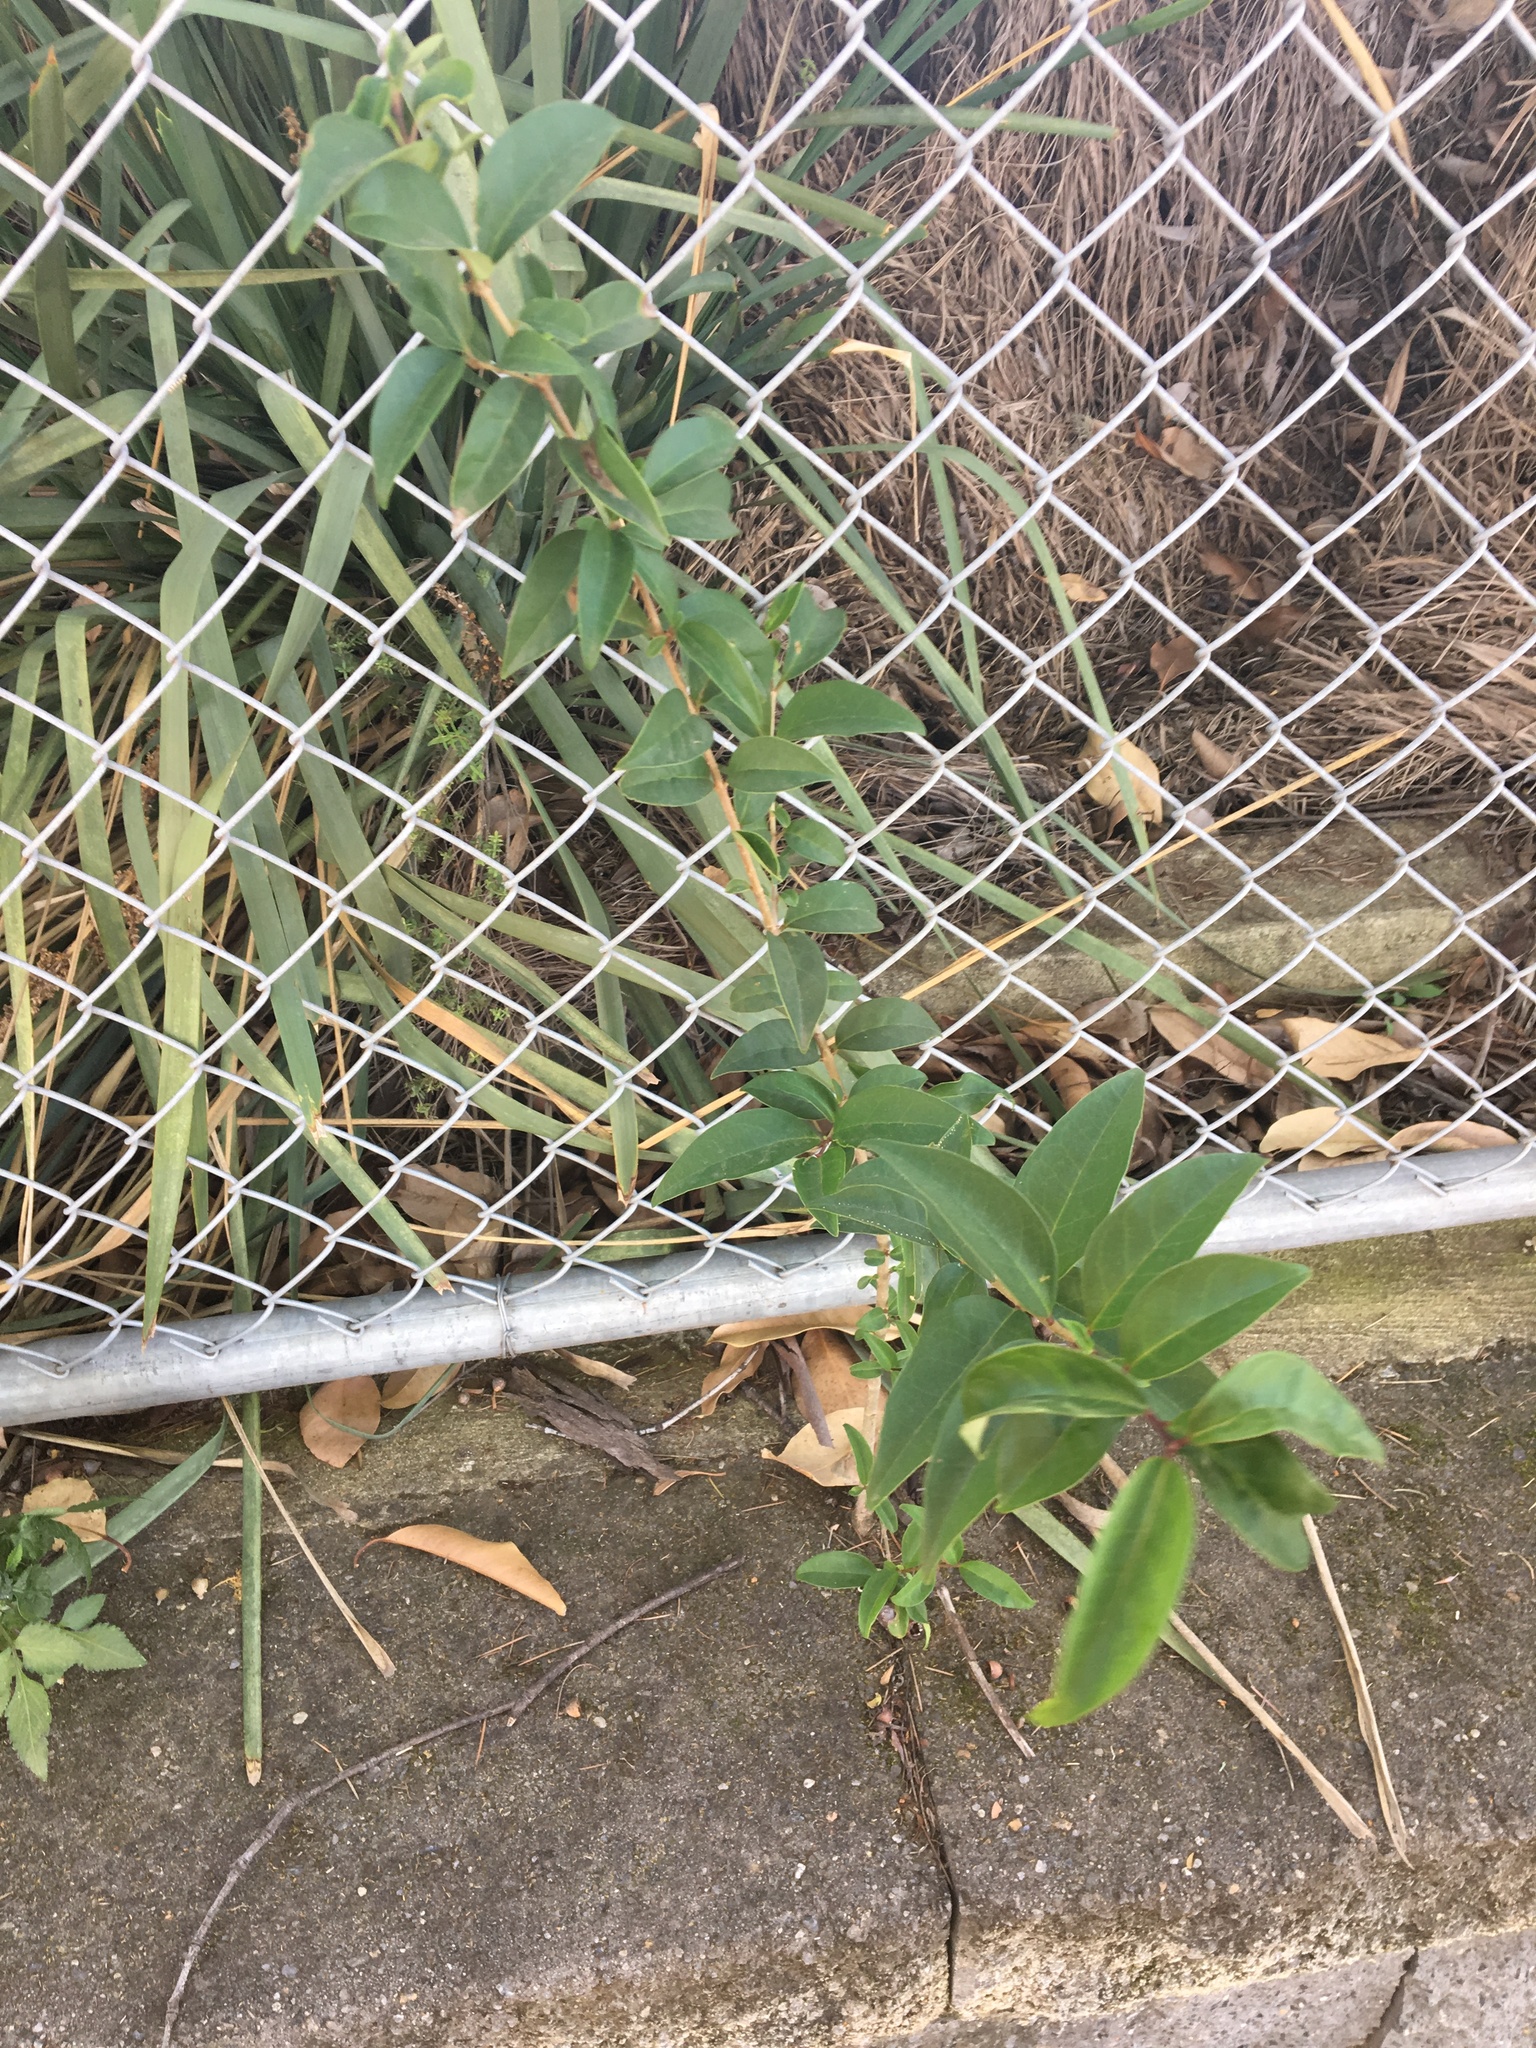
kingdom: Plantae
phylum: Tracheophyta
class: Magnoliopsida
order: Lamiales
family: Oleaceae
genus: Ligustrum
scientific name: Ligustrum lucidum
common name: Glossy privet
